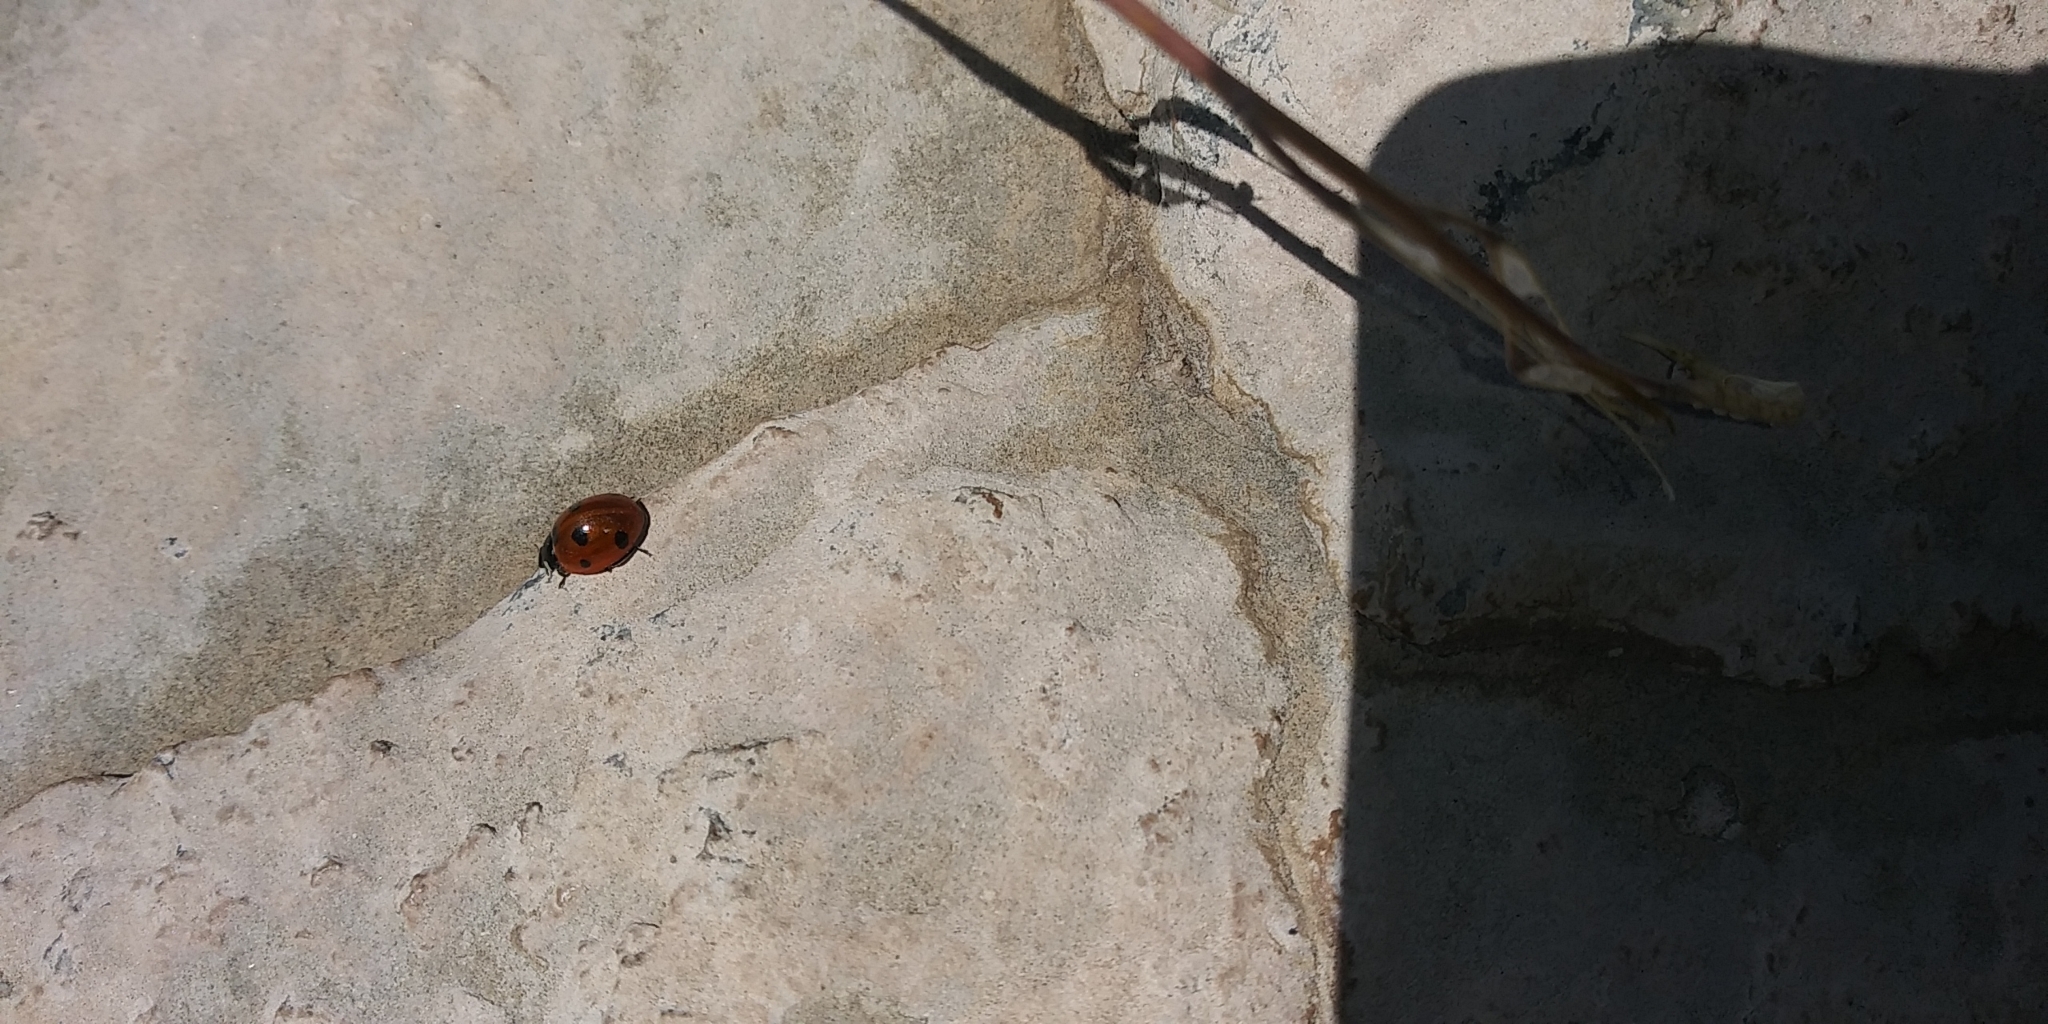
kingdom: Animalia
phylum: Arthropoda
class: Insecta
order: Coleoptera
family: Coccinellidae
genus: Coccinella
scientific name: Coccinella septempunctata
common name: Sevenspotted lady beetle
